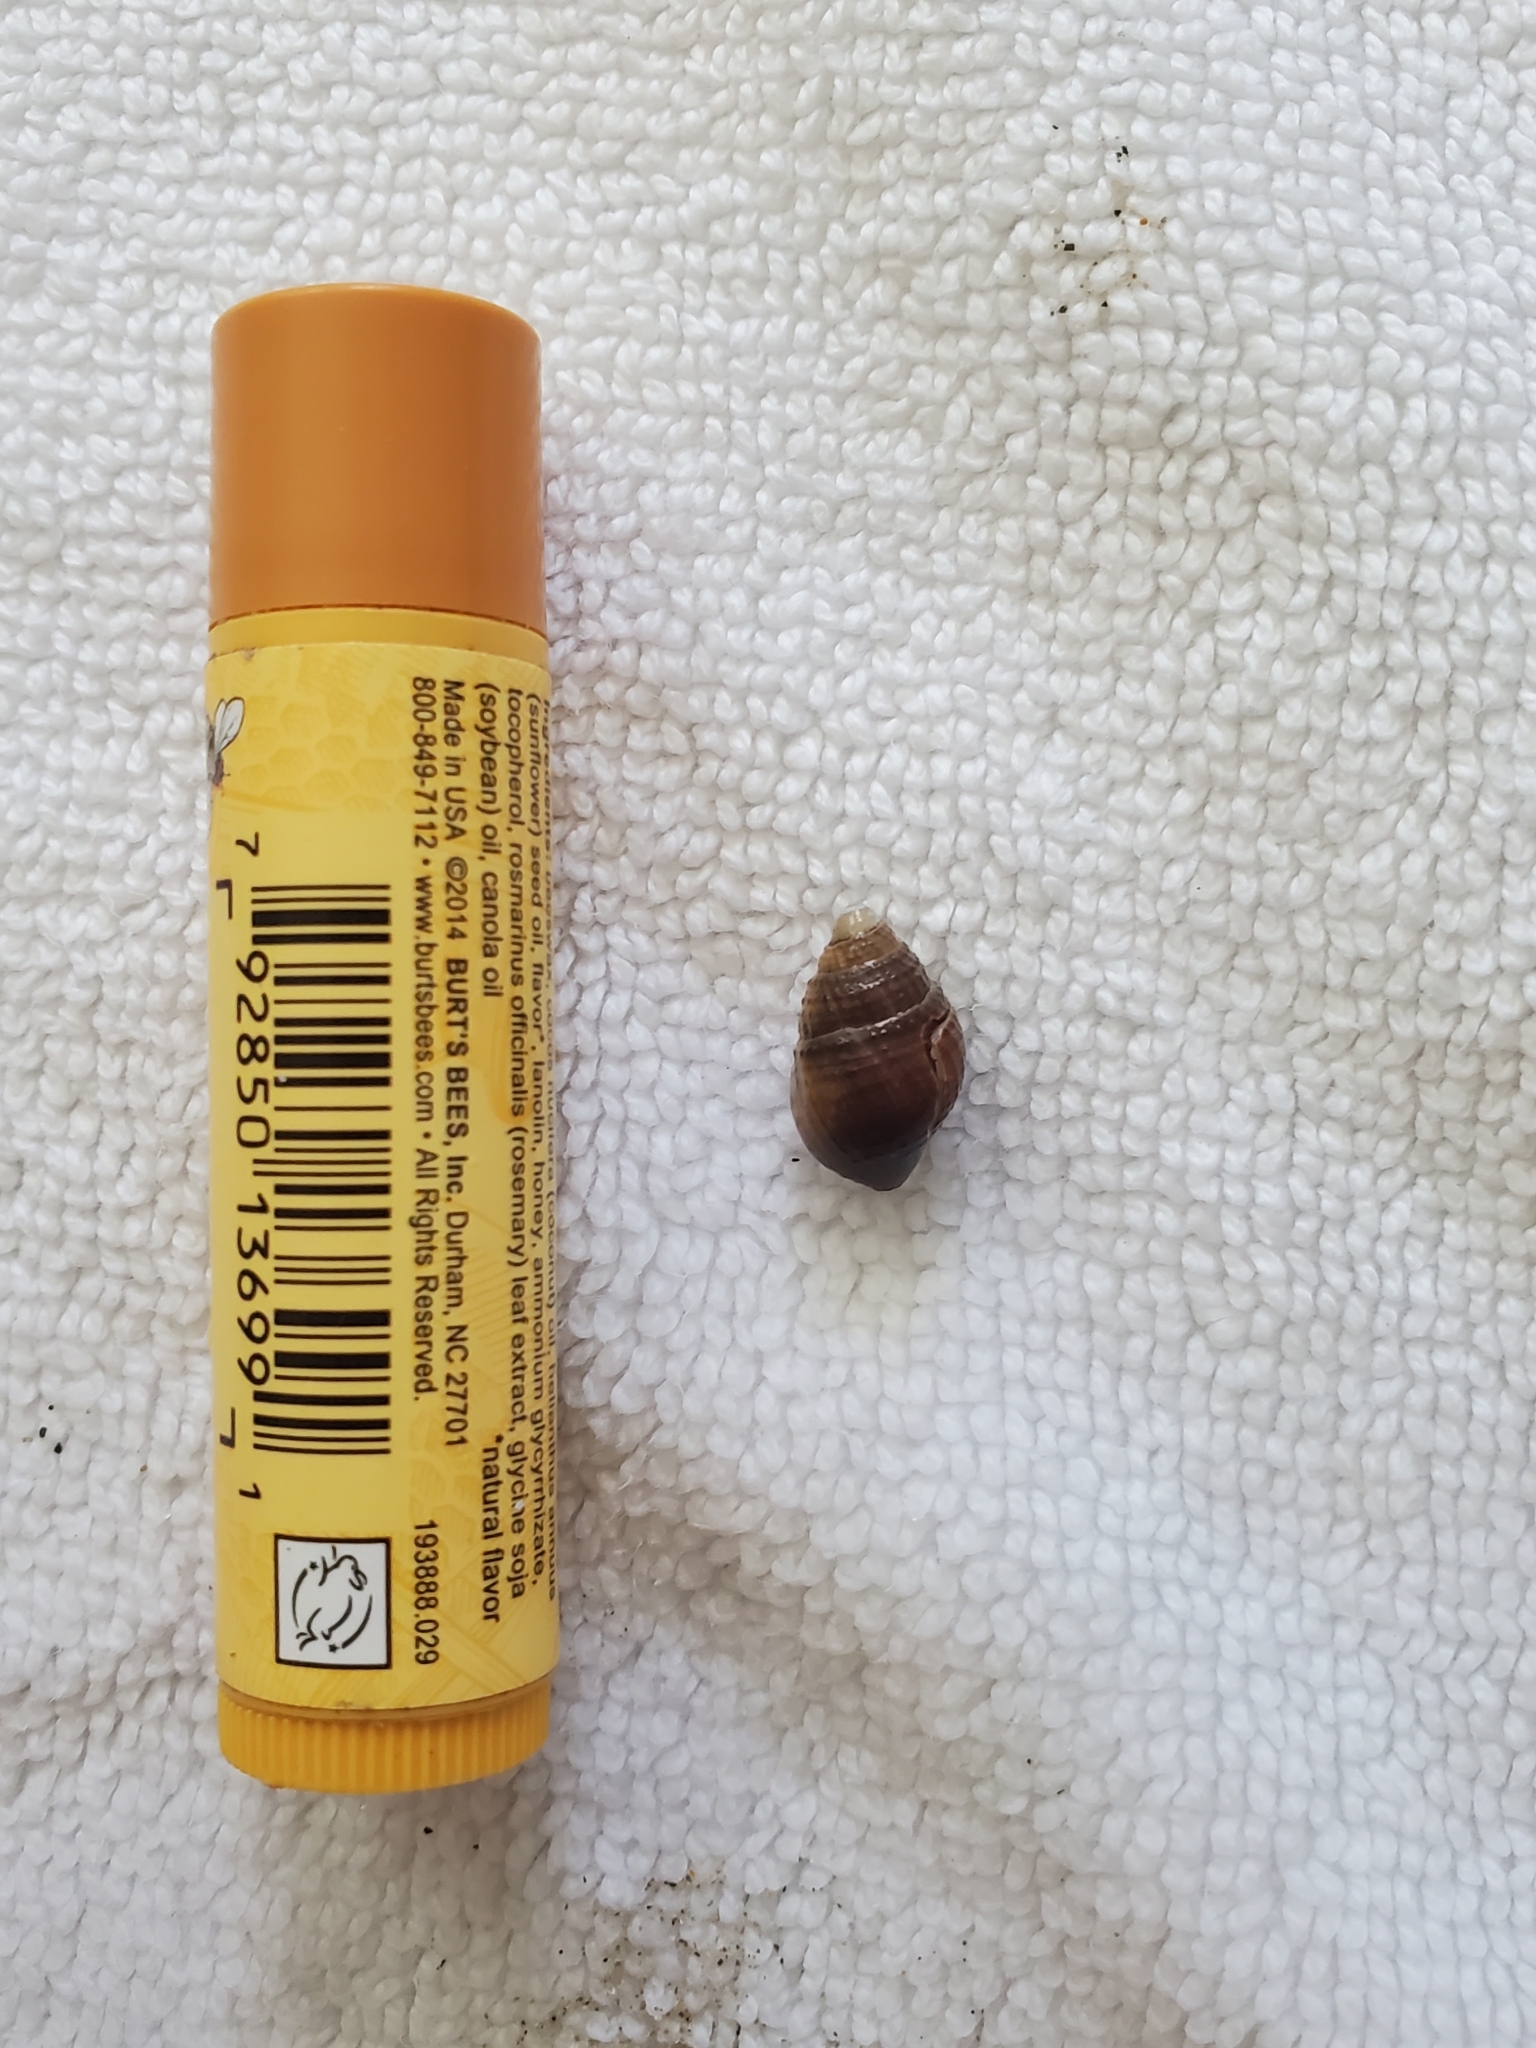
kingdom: Animalia
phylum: Mollusca
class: Gastropoda
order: Neogastropoda
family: Nassariidae
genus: Ilyanassa
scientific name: Ilyanassa obsoleta
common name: Eastern mudsnail
